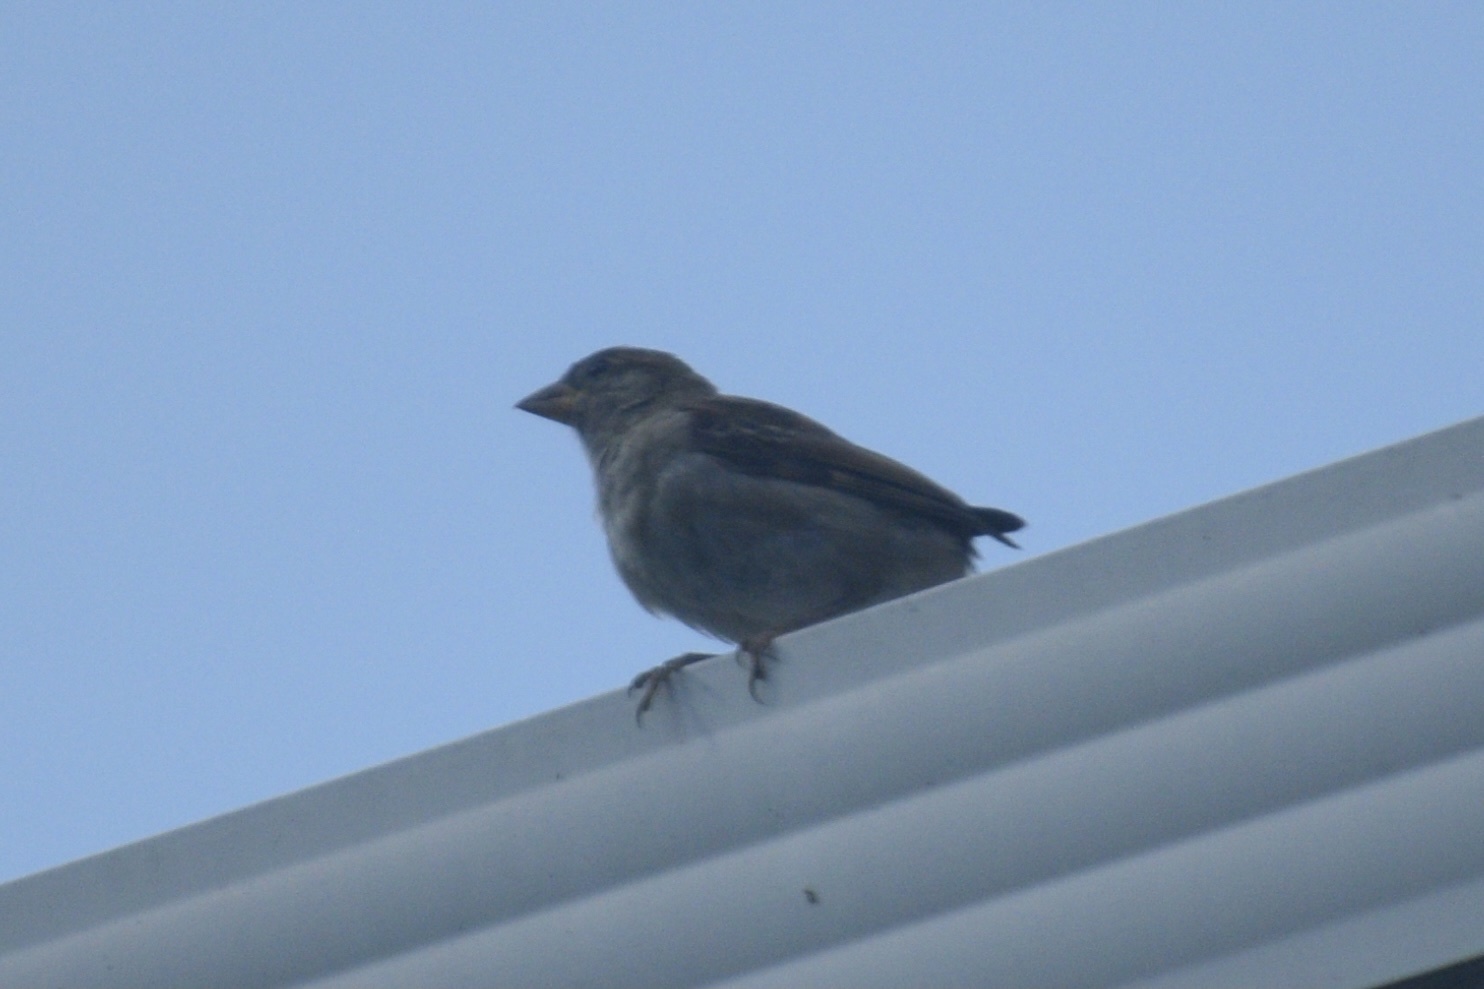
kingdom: Animalia
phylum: Chordata
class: Aves
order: Passeriformes
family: Passeridae
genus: Passer
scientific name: Passer domesticus
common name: House sparrow
